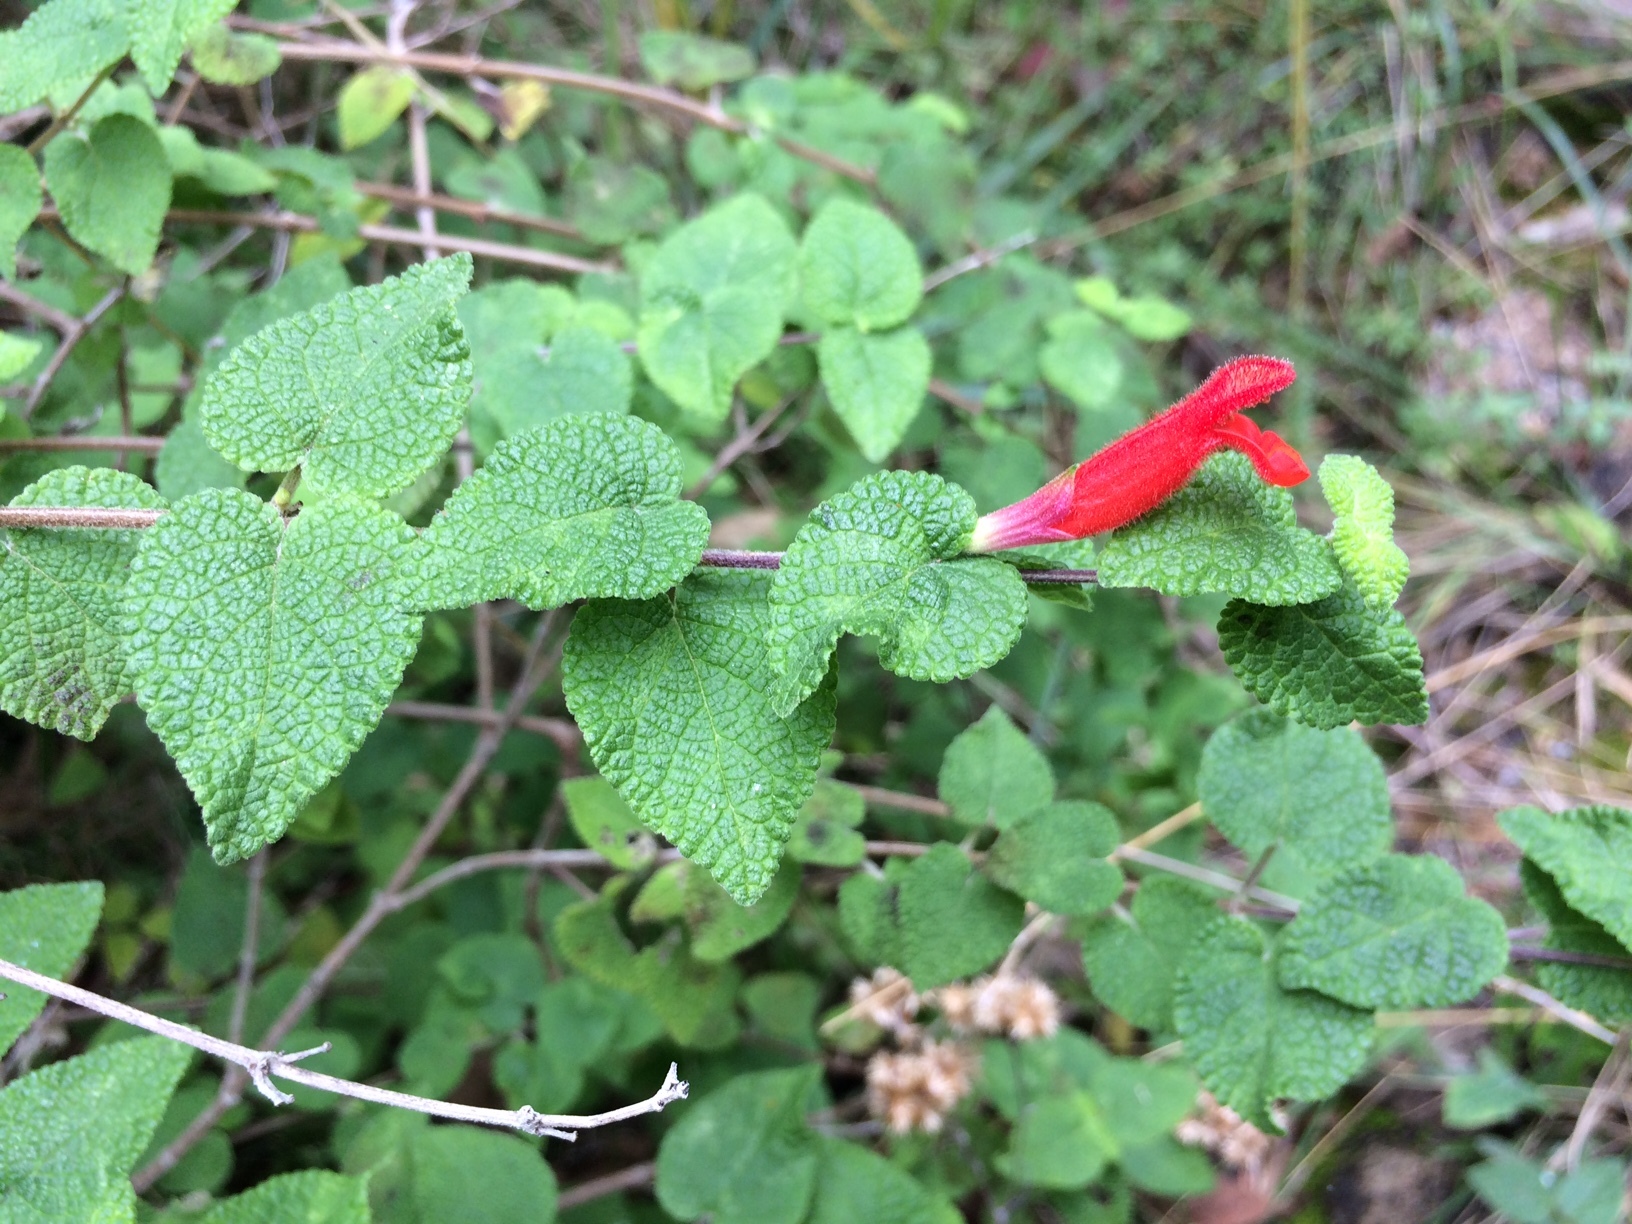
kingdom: Plantae
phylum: Tracheophyta
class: Magnoliopsida
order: Lamiales
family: Lamiaceae
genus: Salvia
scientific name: Salvia disjuncta
